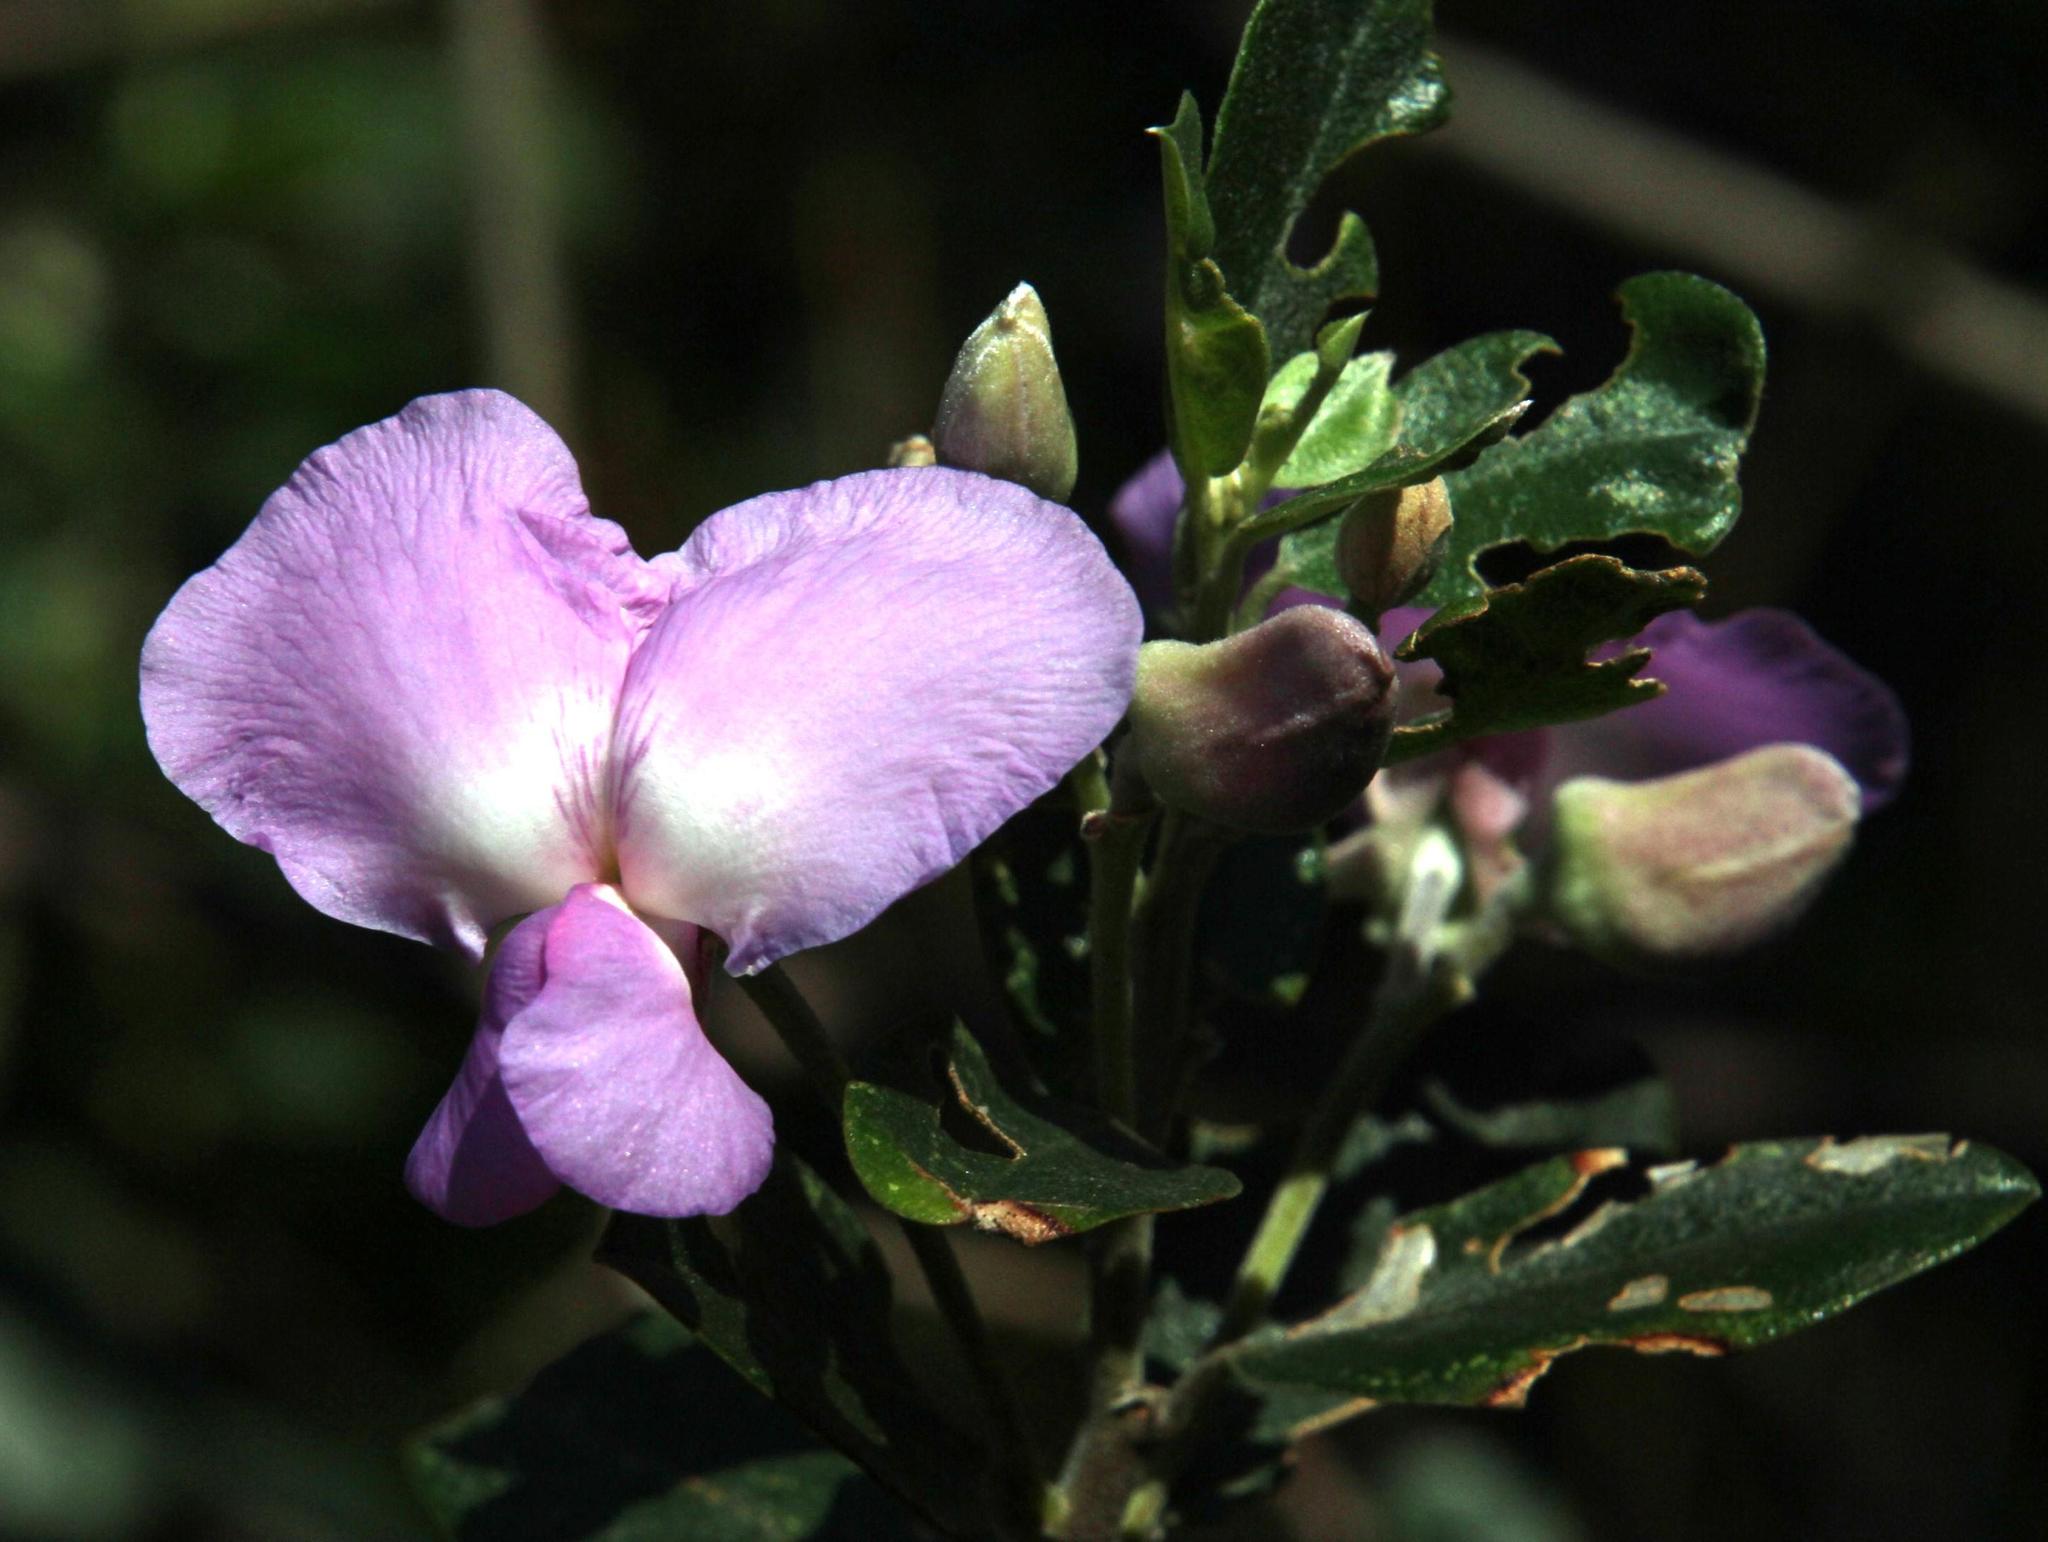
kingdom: Plantae
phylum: Tracheophyta
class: Magnoliopsida
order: Fabales
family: Fabaceae
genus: Podalyria
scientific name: Podalyria calyptrata
